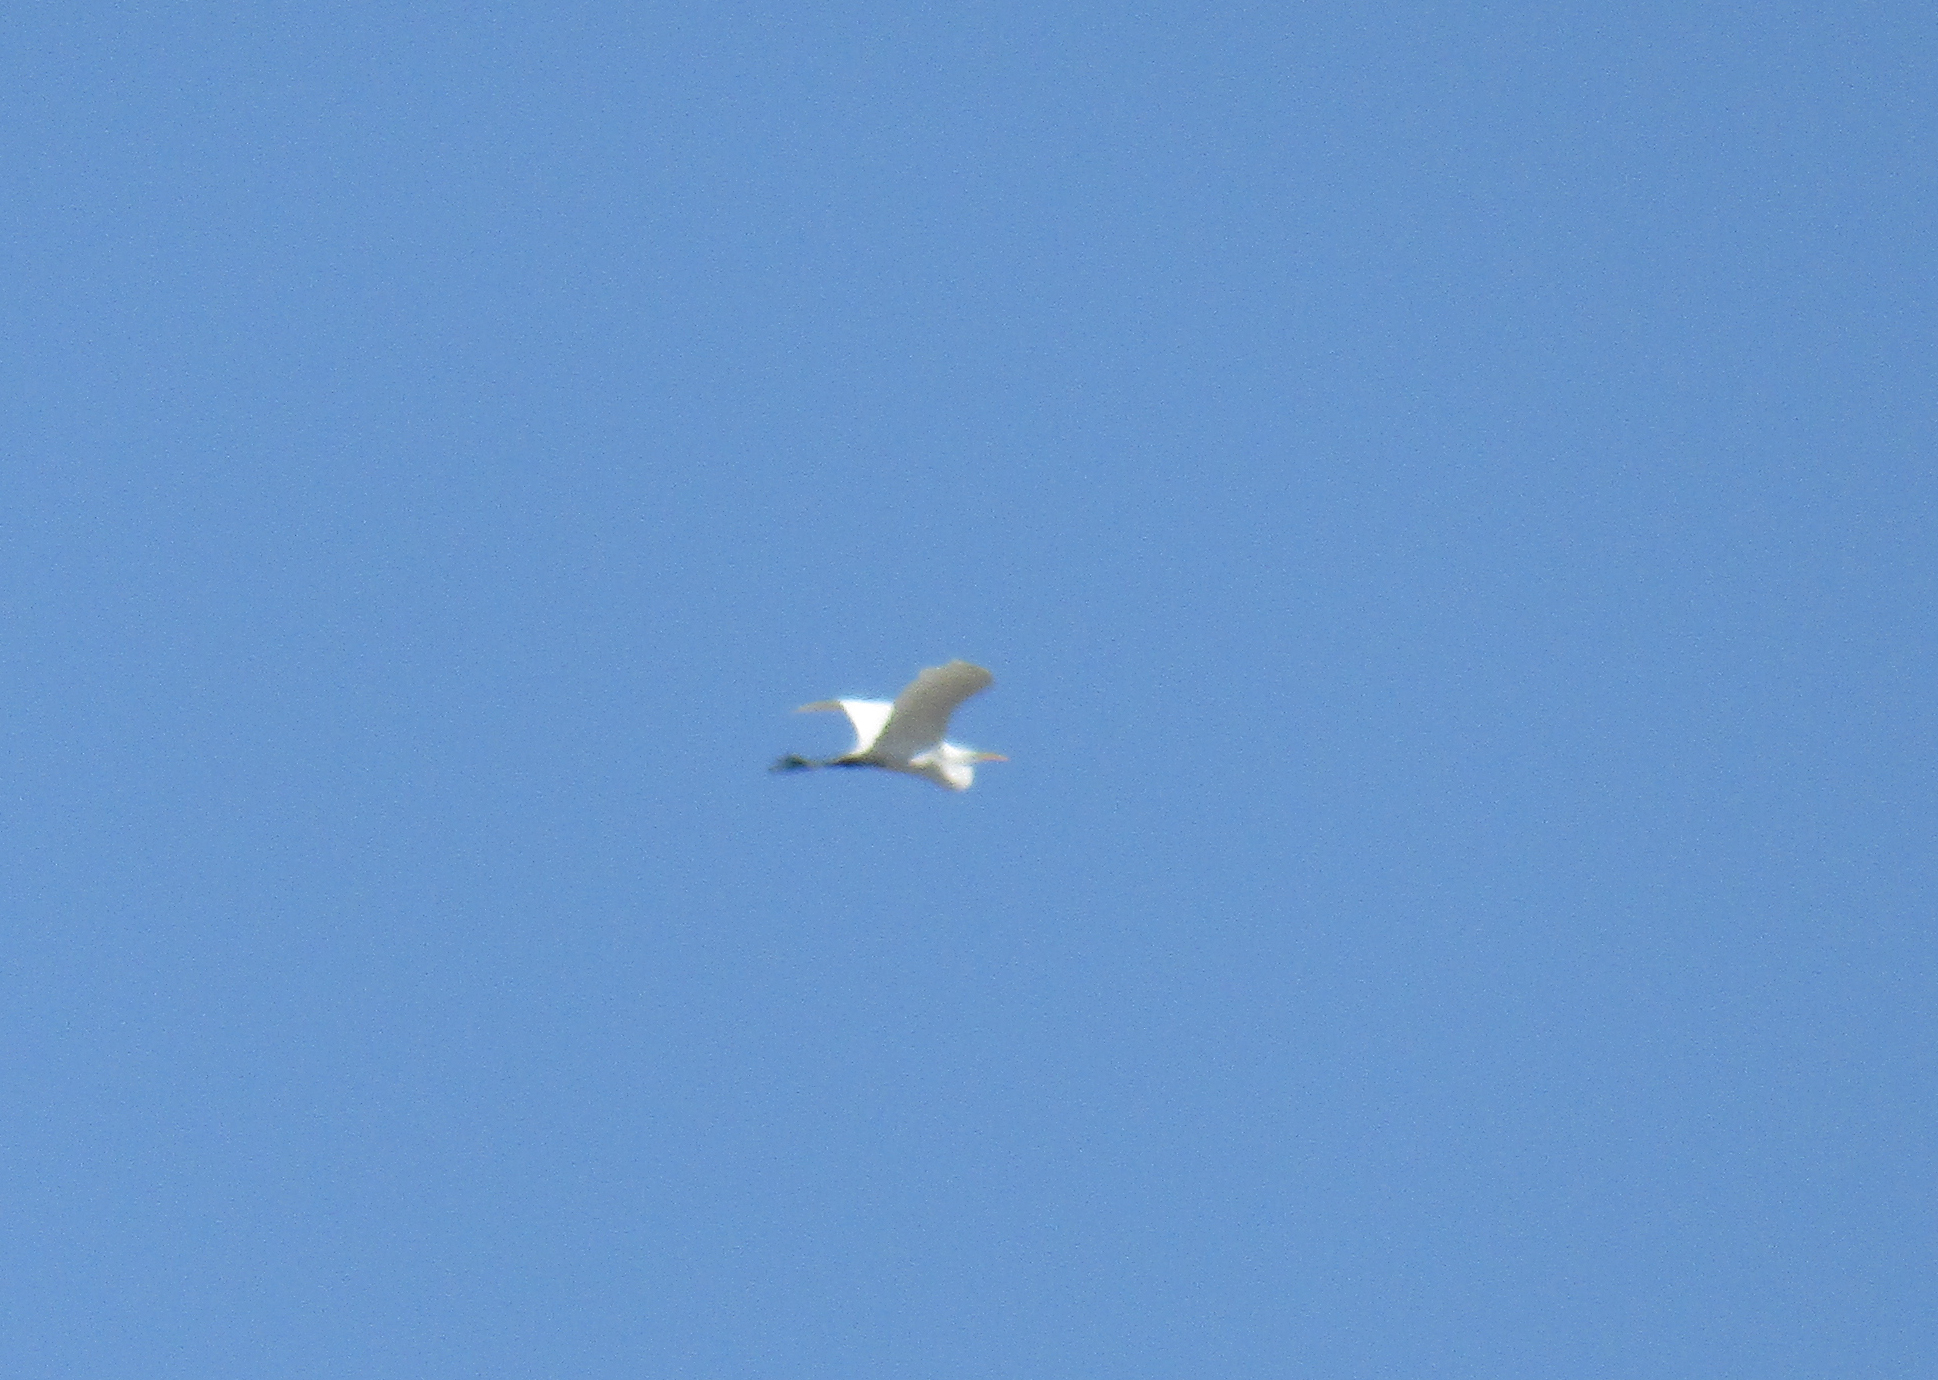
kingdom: Animalia
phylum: Chordata
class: Aves
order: Pelecaniformes
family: Ardeidae
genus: Ardea
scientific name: Ardea alba
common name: Great egret
